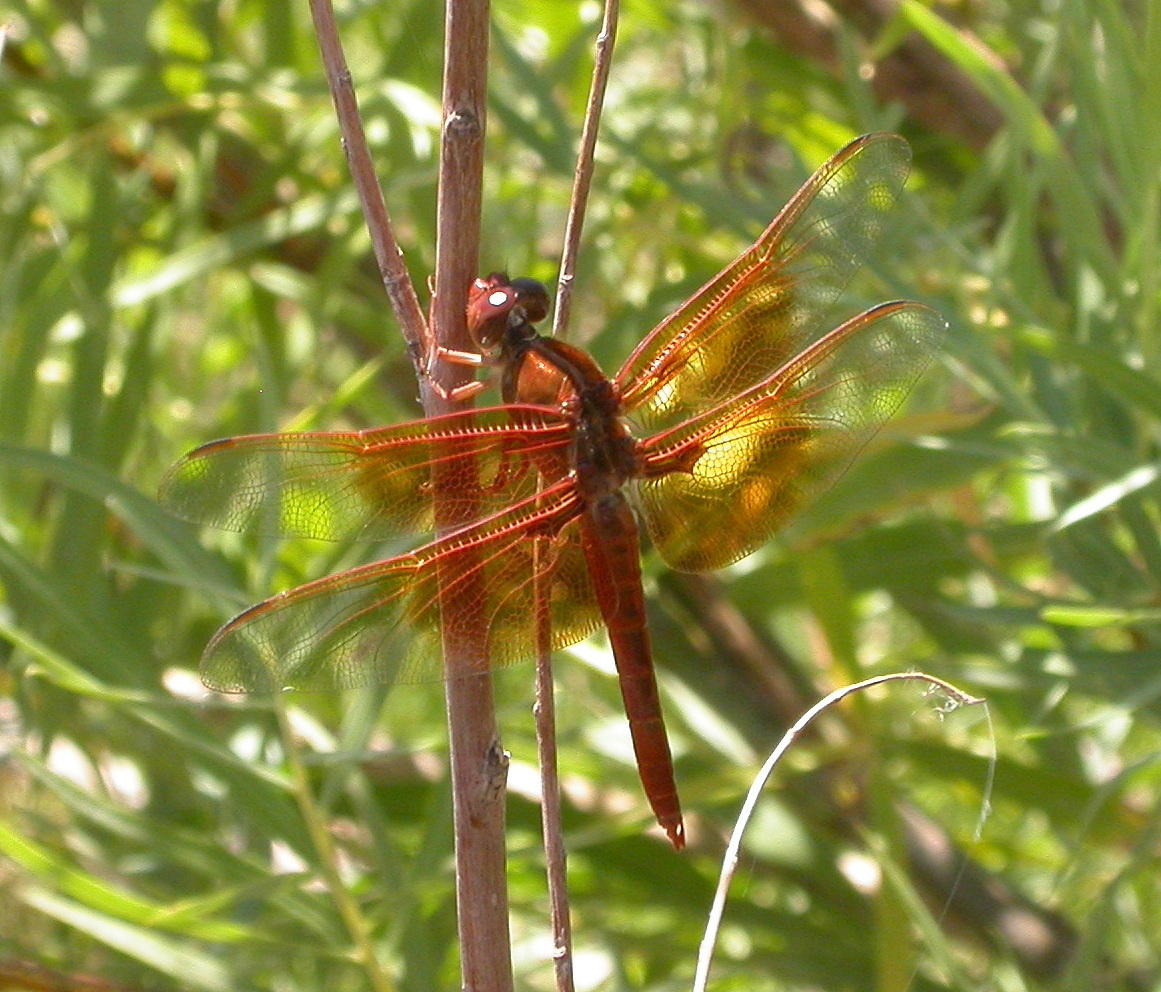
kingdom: Animalia
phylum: Arthropoda
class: Insecta
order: Odonata
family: Libellulidae
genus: Libellula
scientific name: Libellula saturata
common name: Flame skimmer
